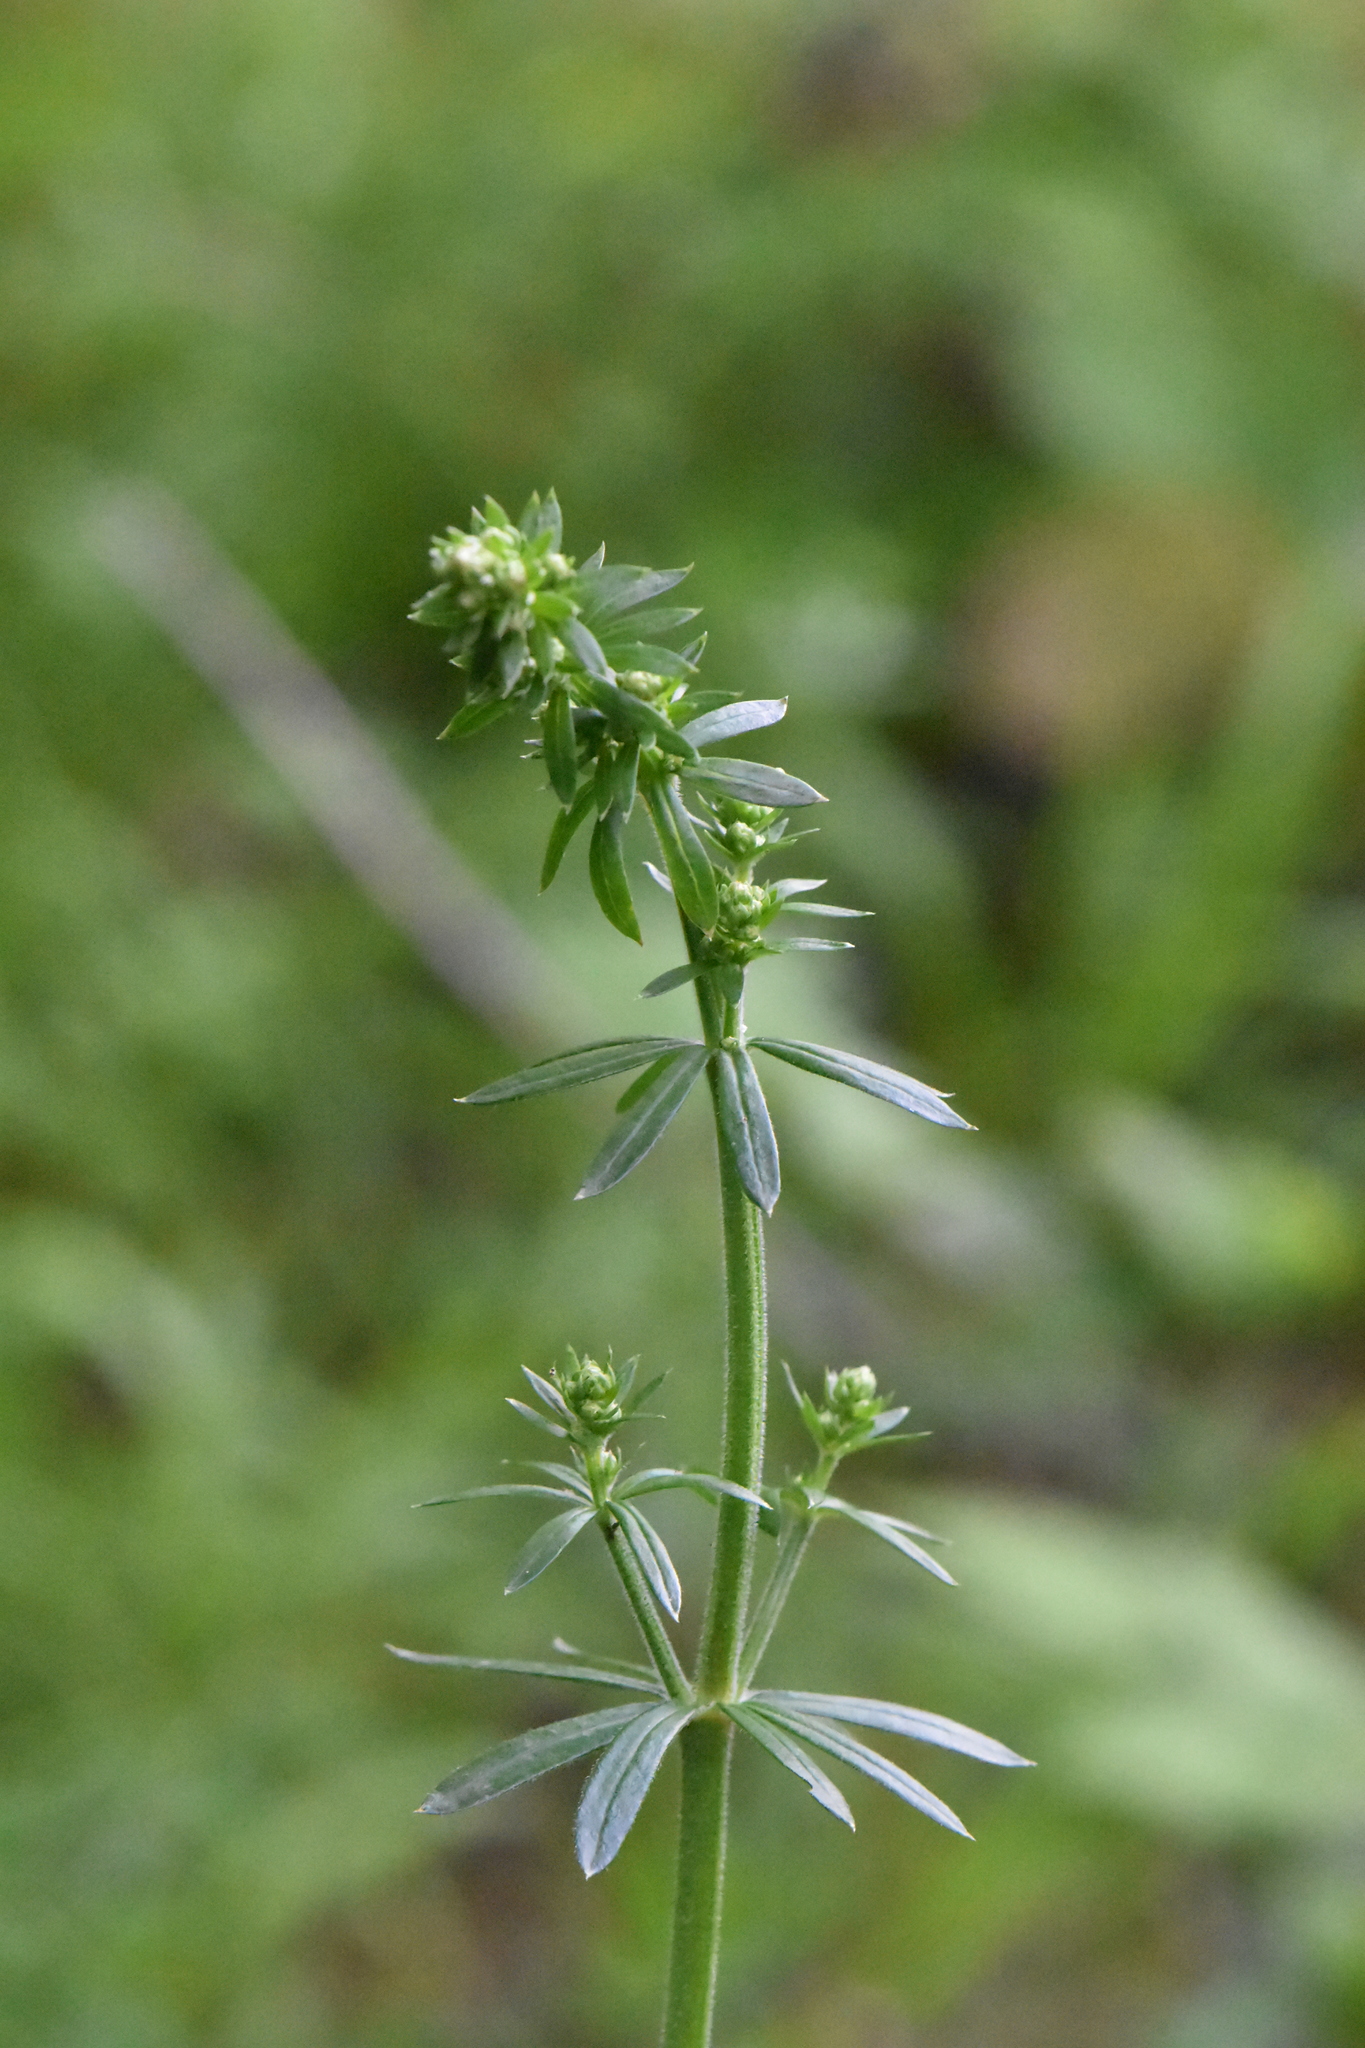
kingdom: Plantae
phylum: Tracheophyta
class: Magnoliopsida
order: Gentianales
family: Rubiaceae
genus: Galium
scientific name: Galium mollugo
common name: Hedge bedstraw
